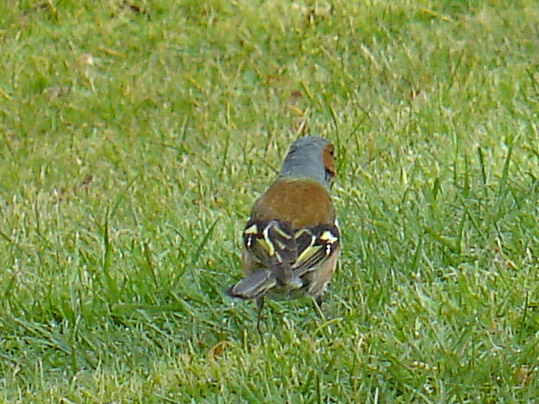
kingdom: Animalia
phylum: Chordata
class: Aves
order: Passeriformes
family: Fringillidae
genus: Fringilla
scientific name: Fringilla coelebs
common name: Common chaffinch
